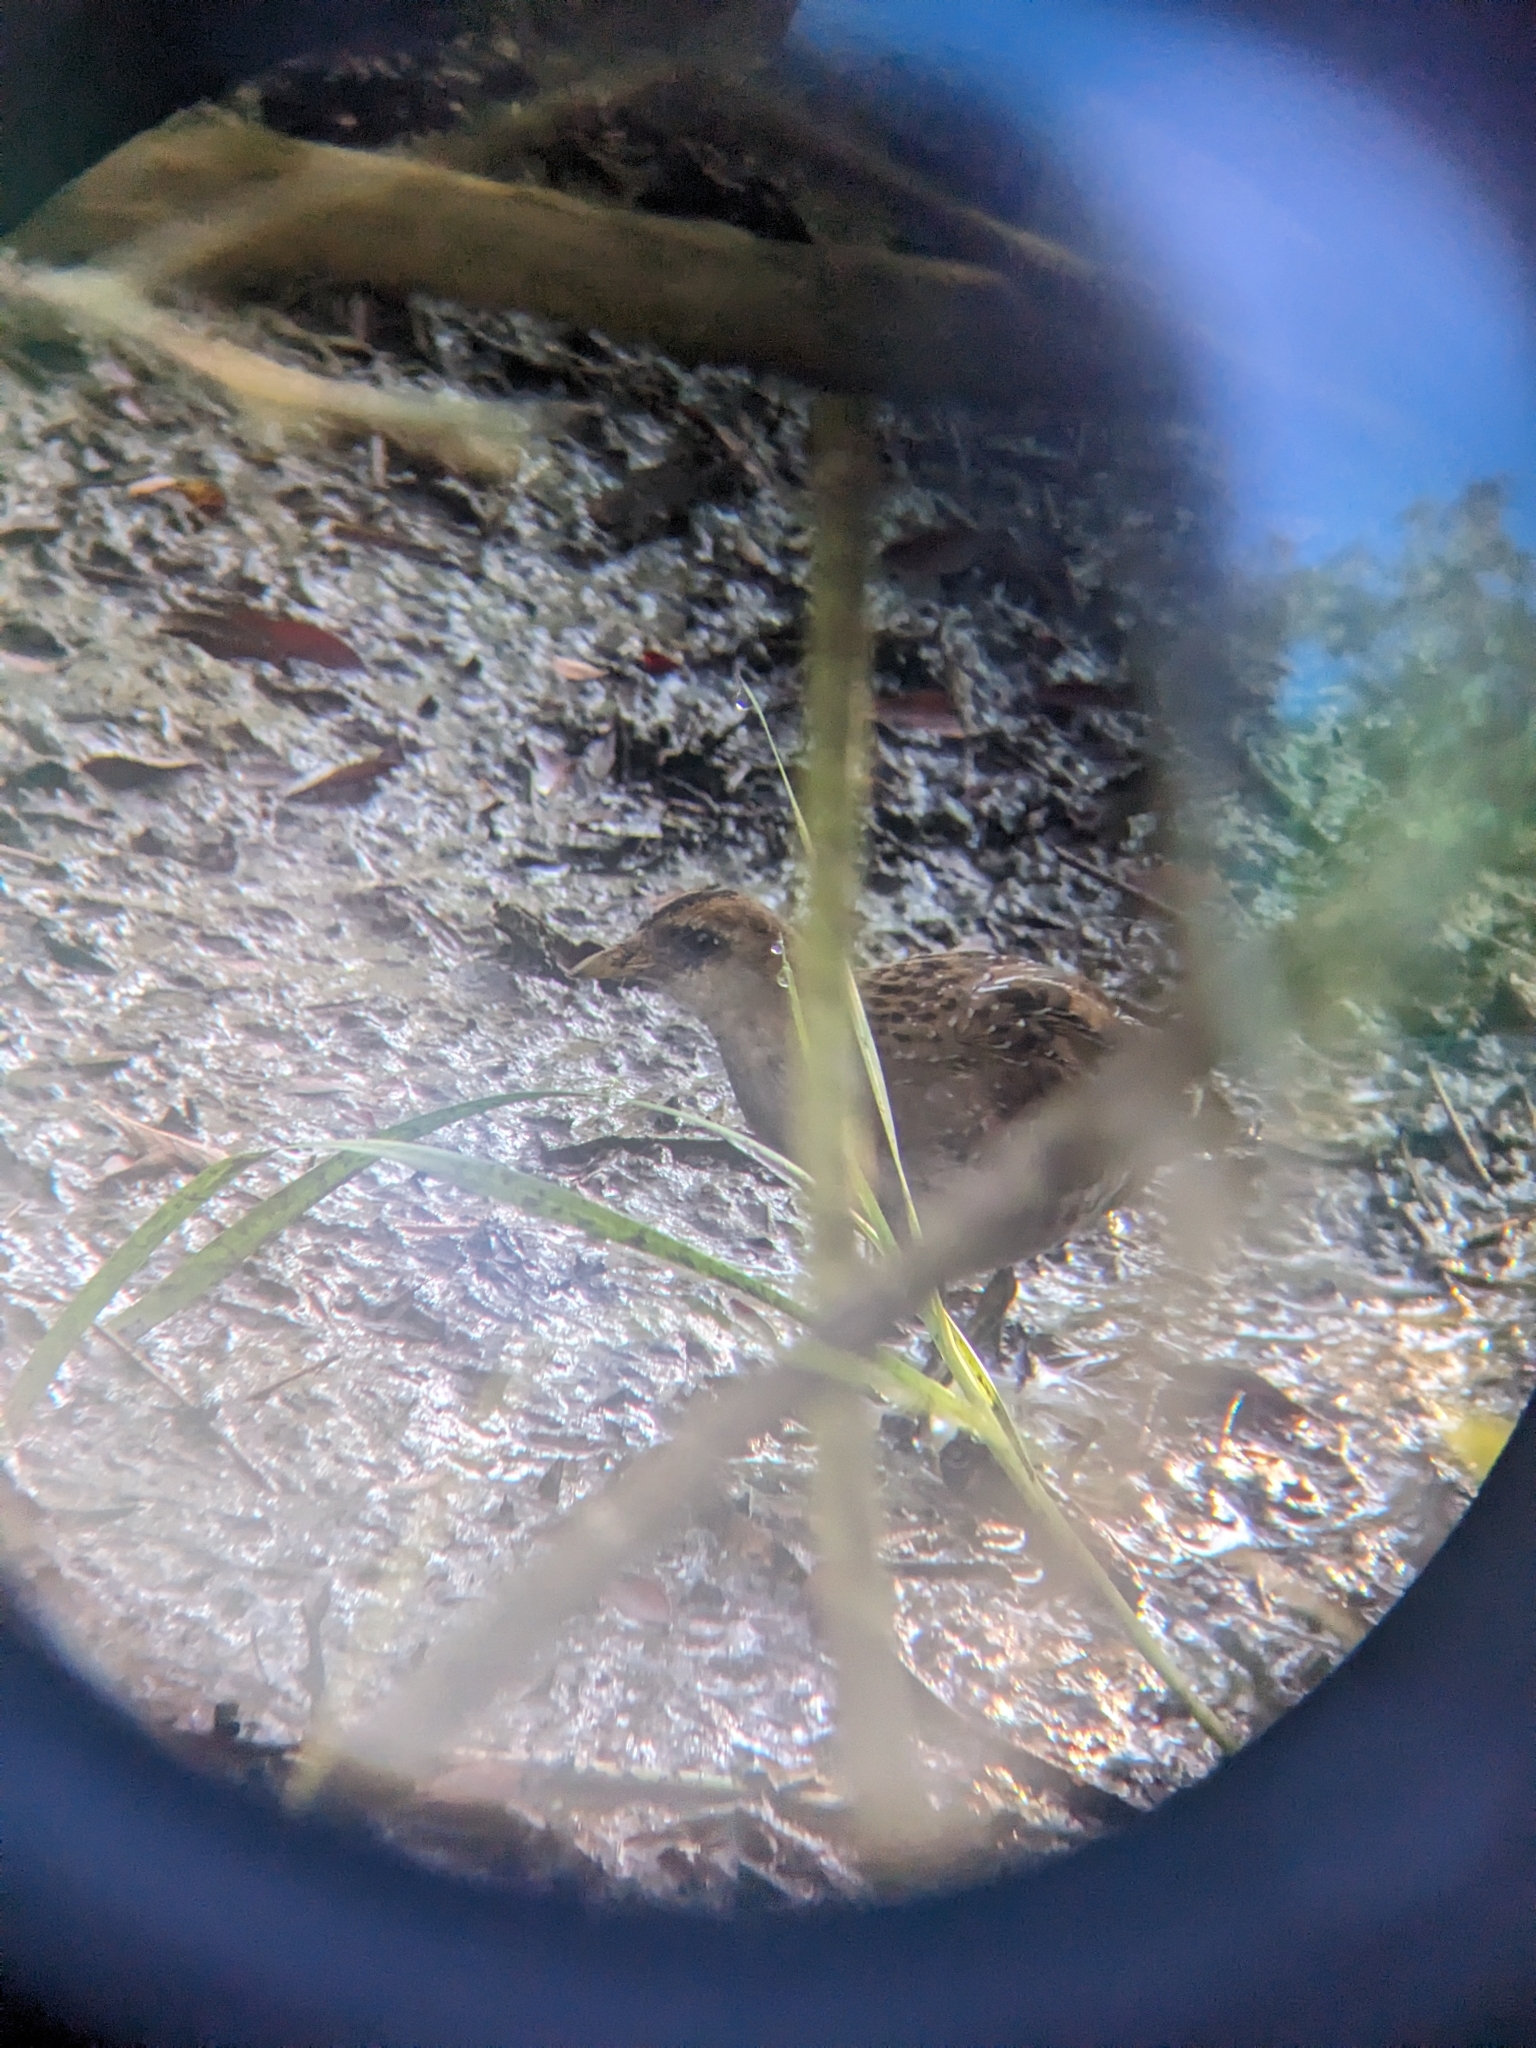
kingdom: Animalia
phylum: Chordata
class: Aves
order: Gruiformes
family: Rallidae
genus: Porzana
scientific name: Porzana carolina
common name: Sora
